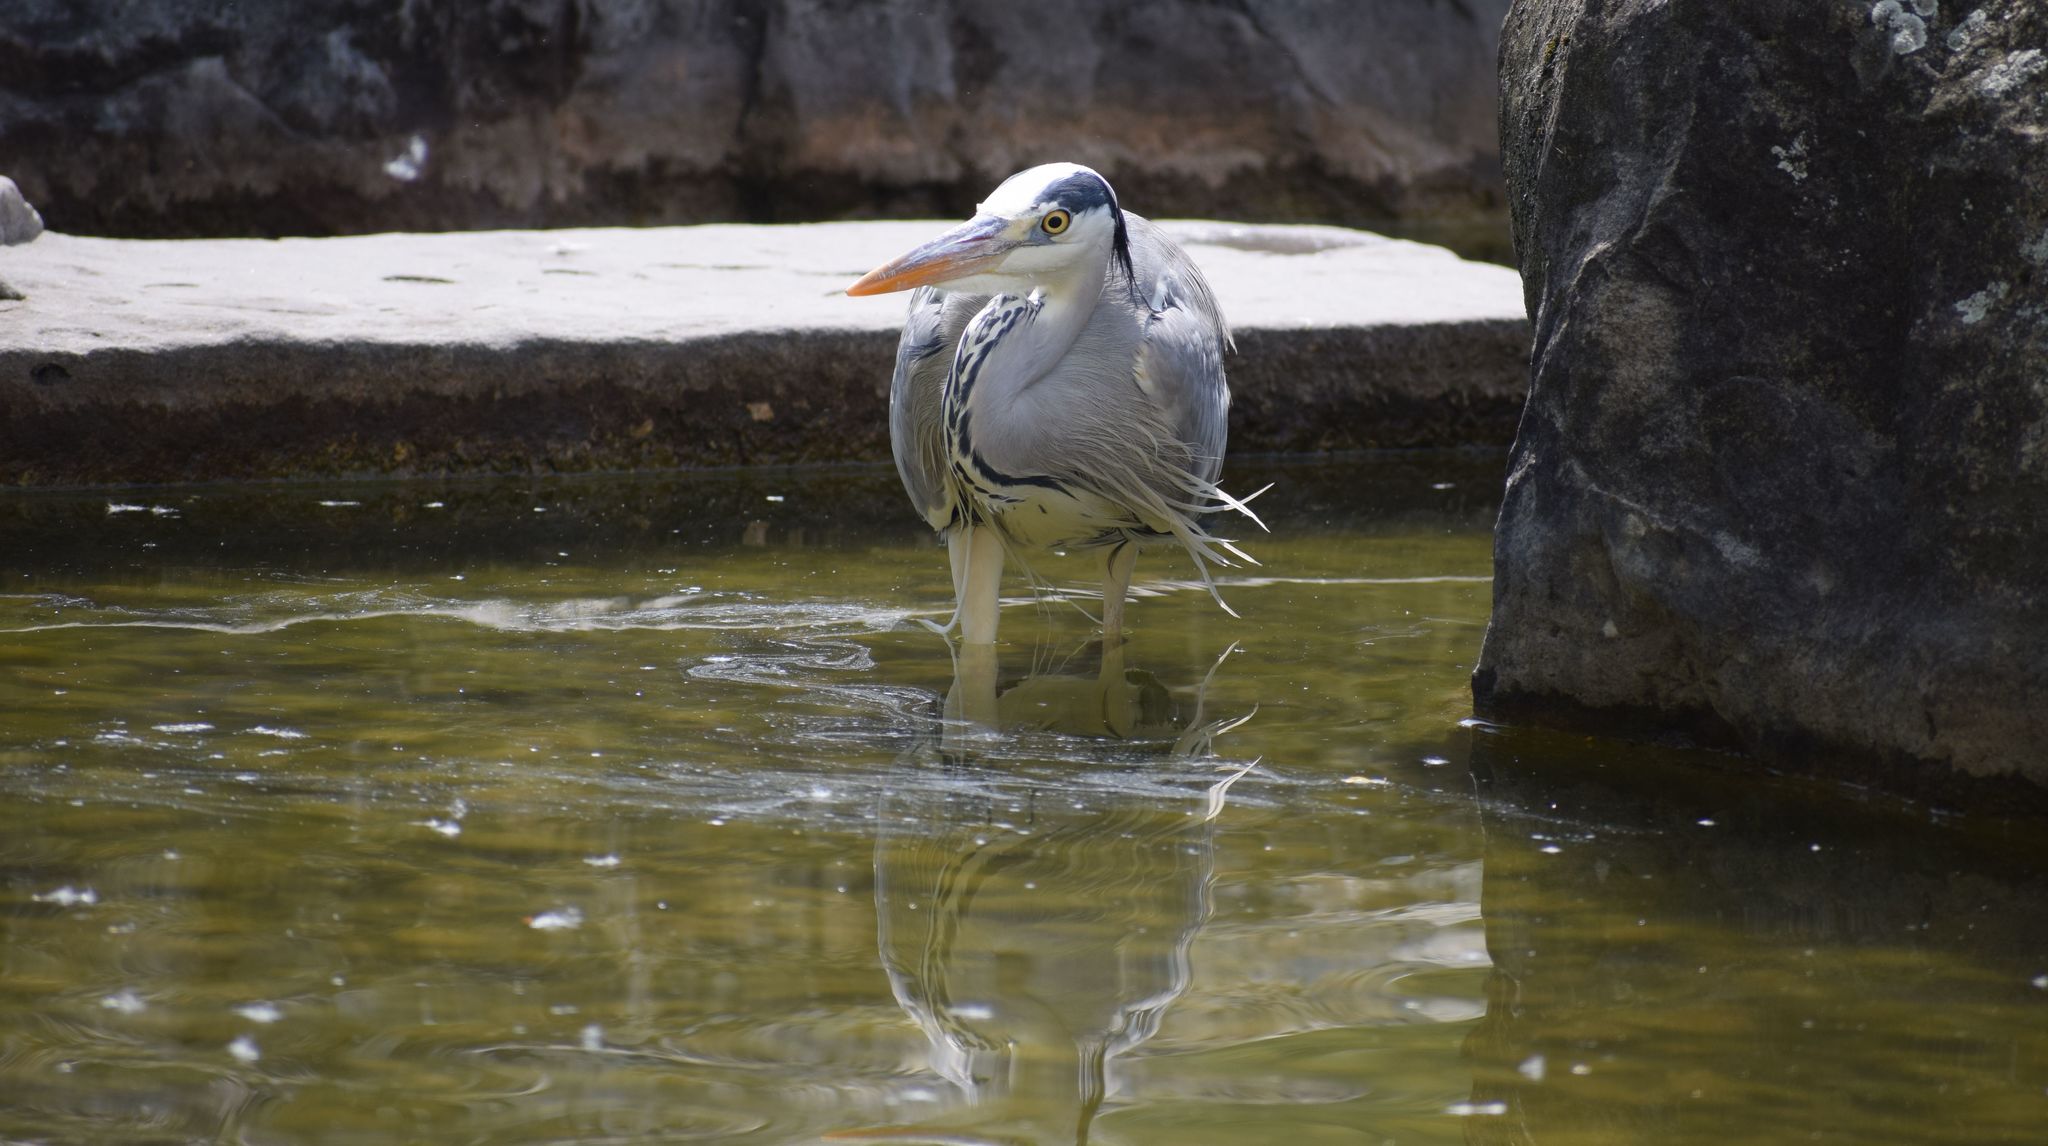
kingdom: Animalia
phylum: Chordata
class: Aves
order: Pelecaniformes
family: Ardeidae
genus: Ardea
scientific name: Ardea cinerea
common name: Grey heron
